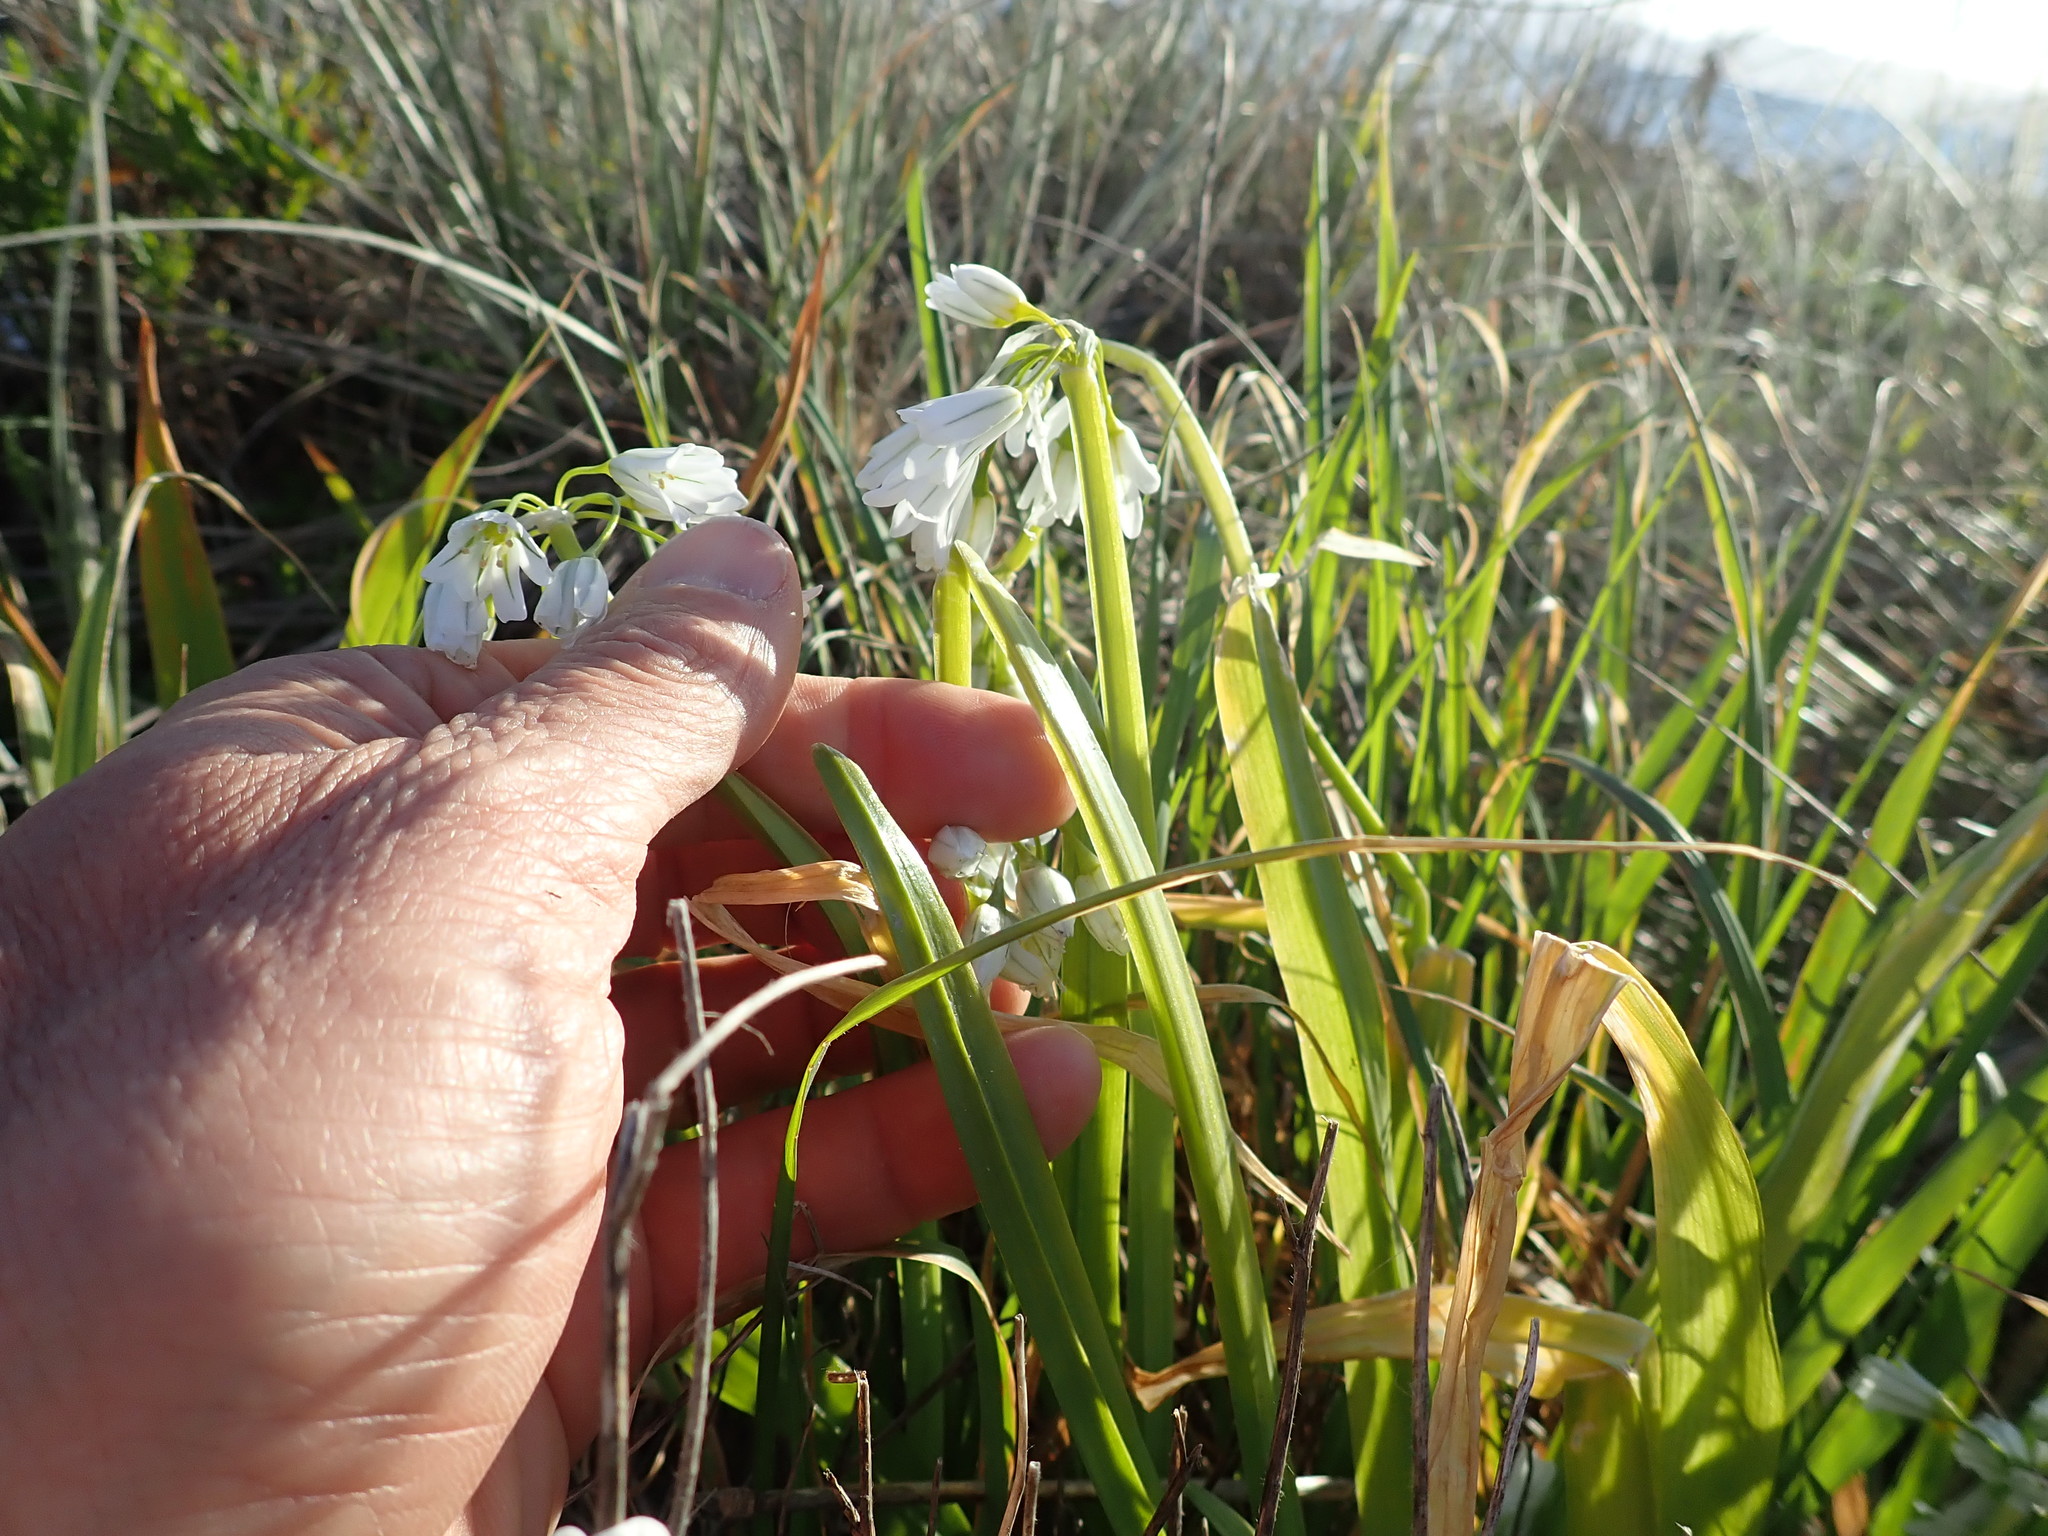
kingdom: Plantae
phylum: Tracheophyta
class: Liliopsida
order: Asparagales
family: Amaryllidaceae
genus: Allium
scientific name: Allium triquetrum
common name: Three-cornered garlic
